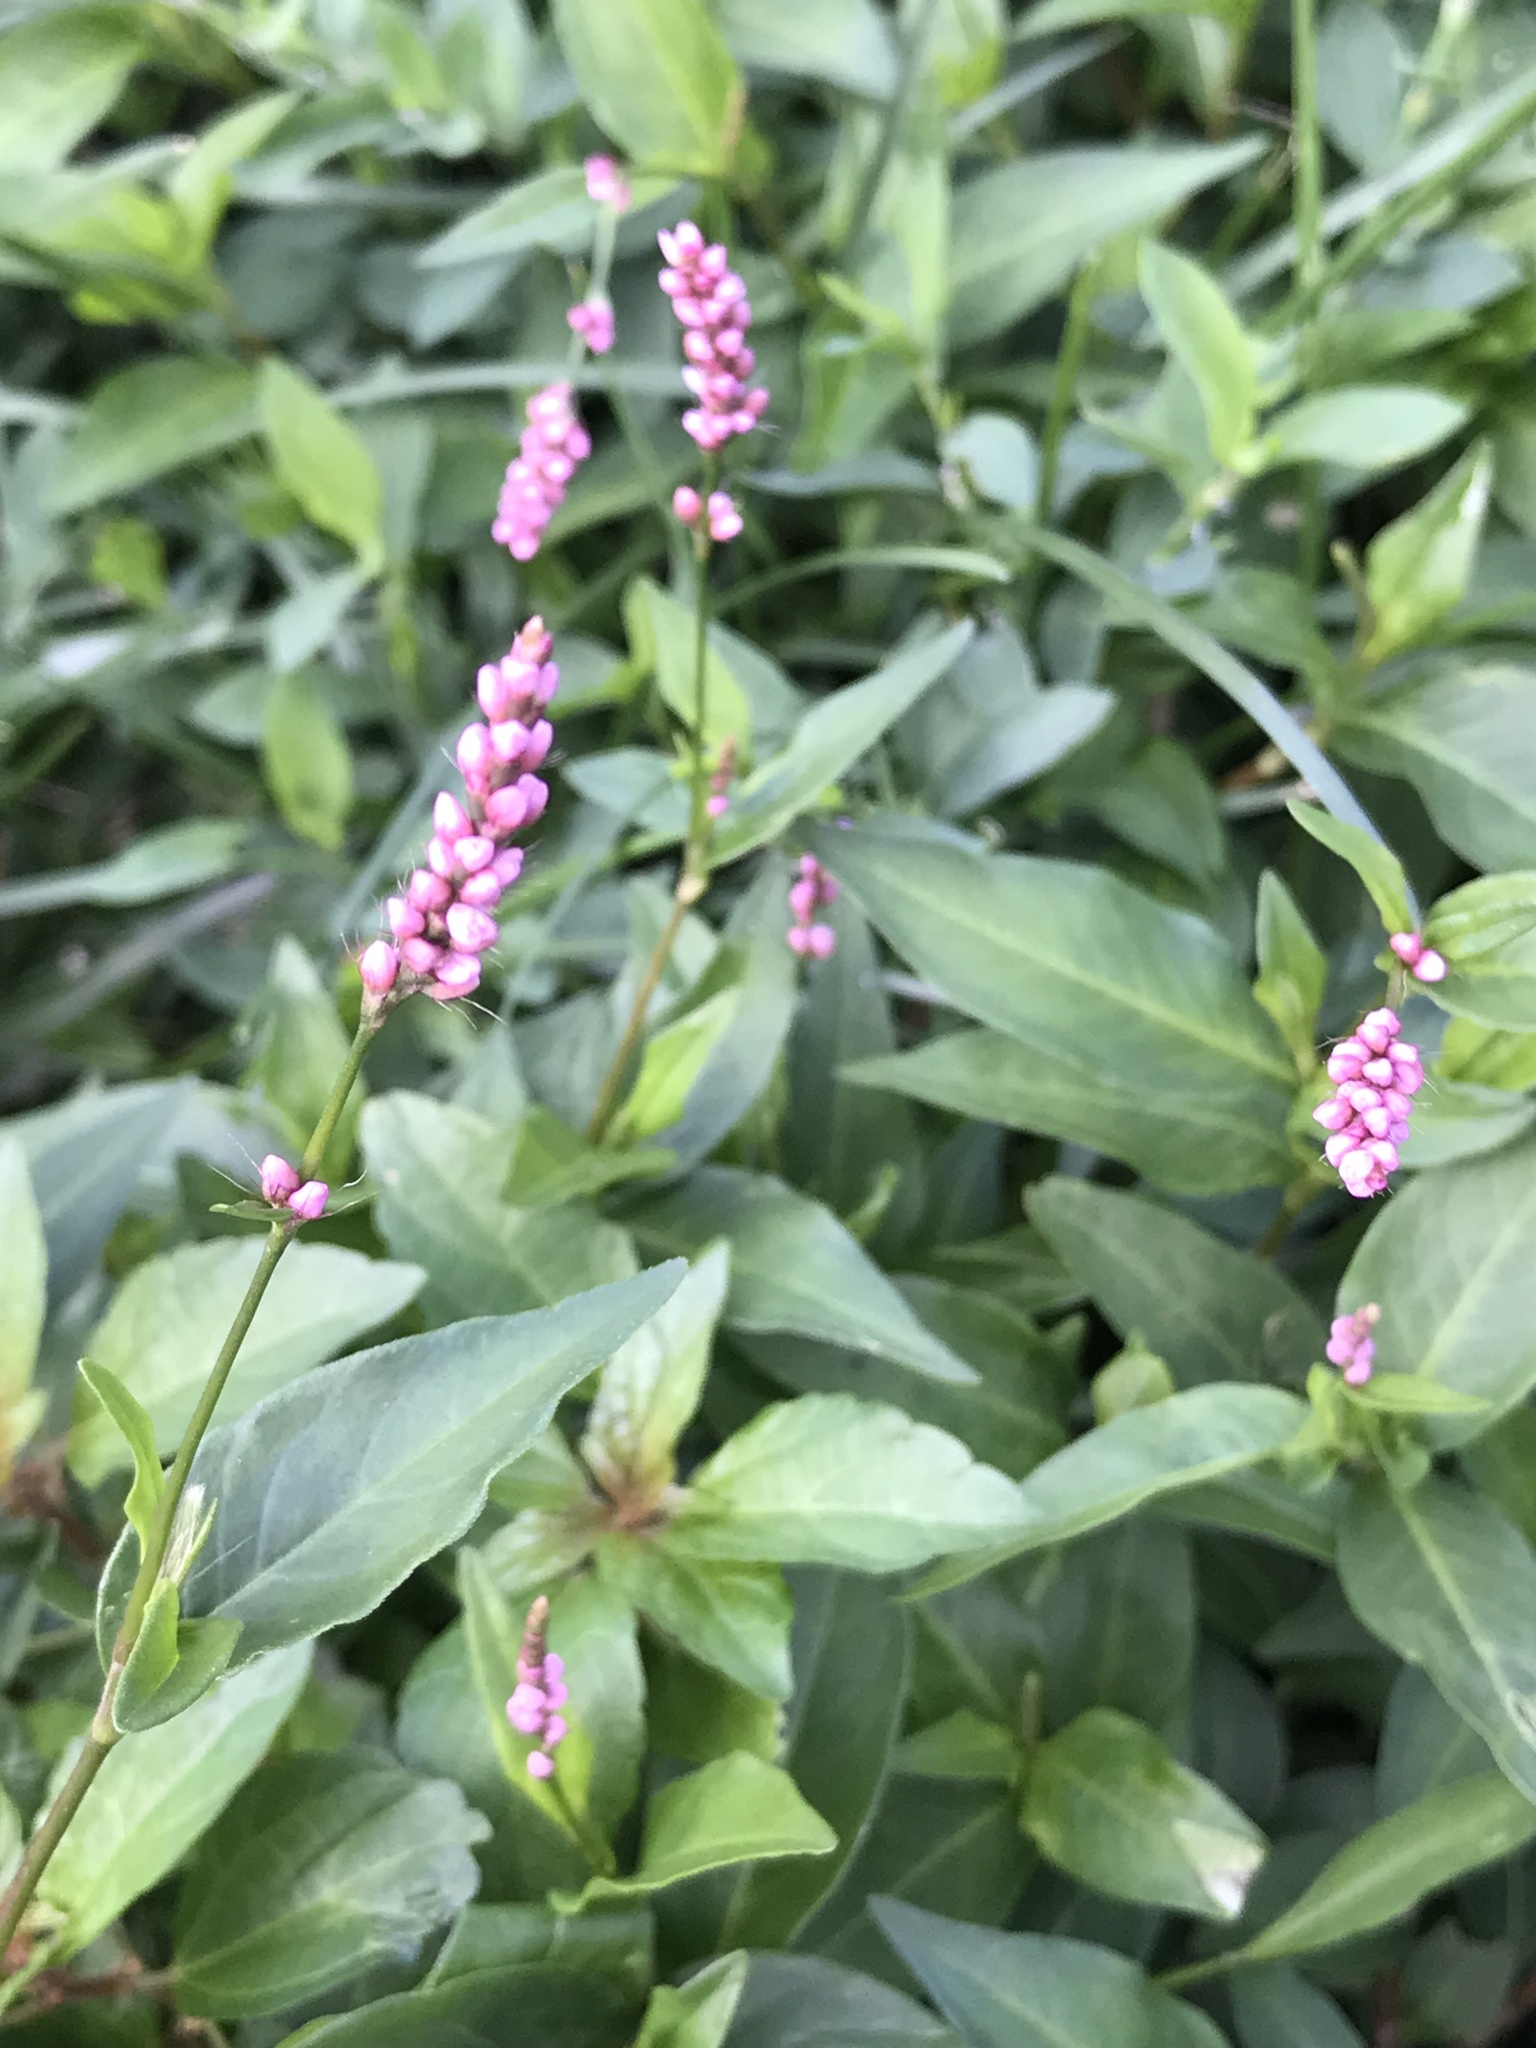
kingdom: Plantae
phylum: Tracheophyta
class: Magnoliopsida
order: Caryophyllales
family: Polygonaceae
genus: Persicaria
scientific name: Persicaria longiseta
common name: Bristly lady's-thumb
